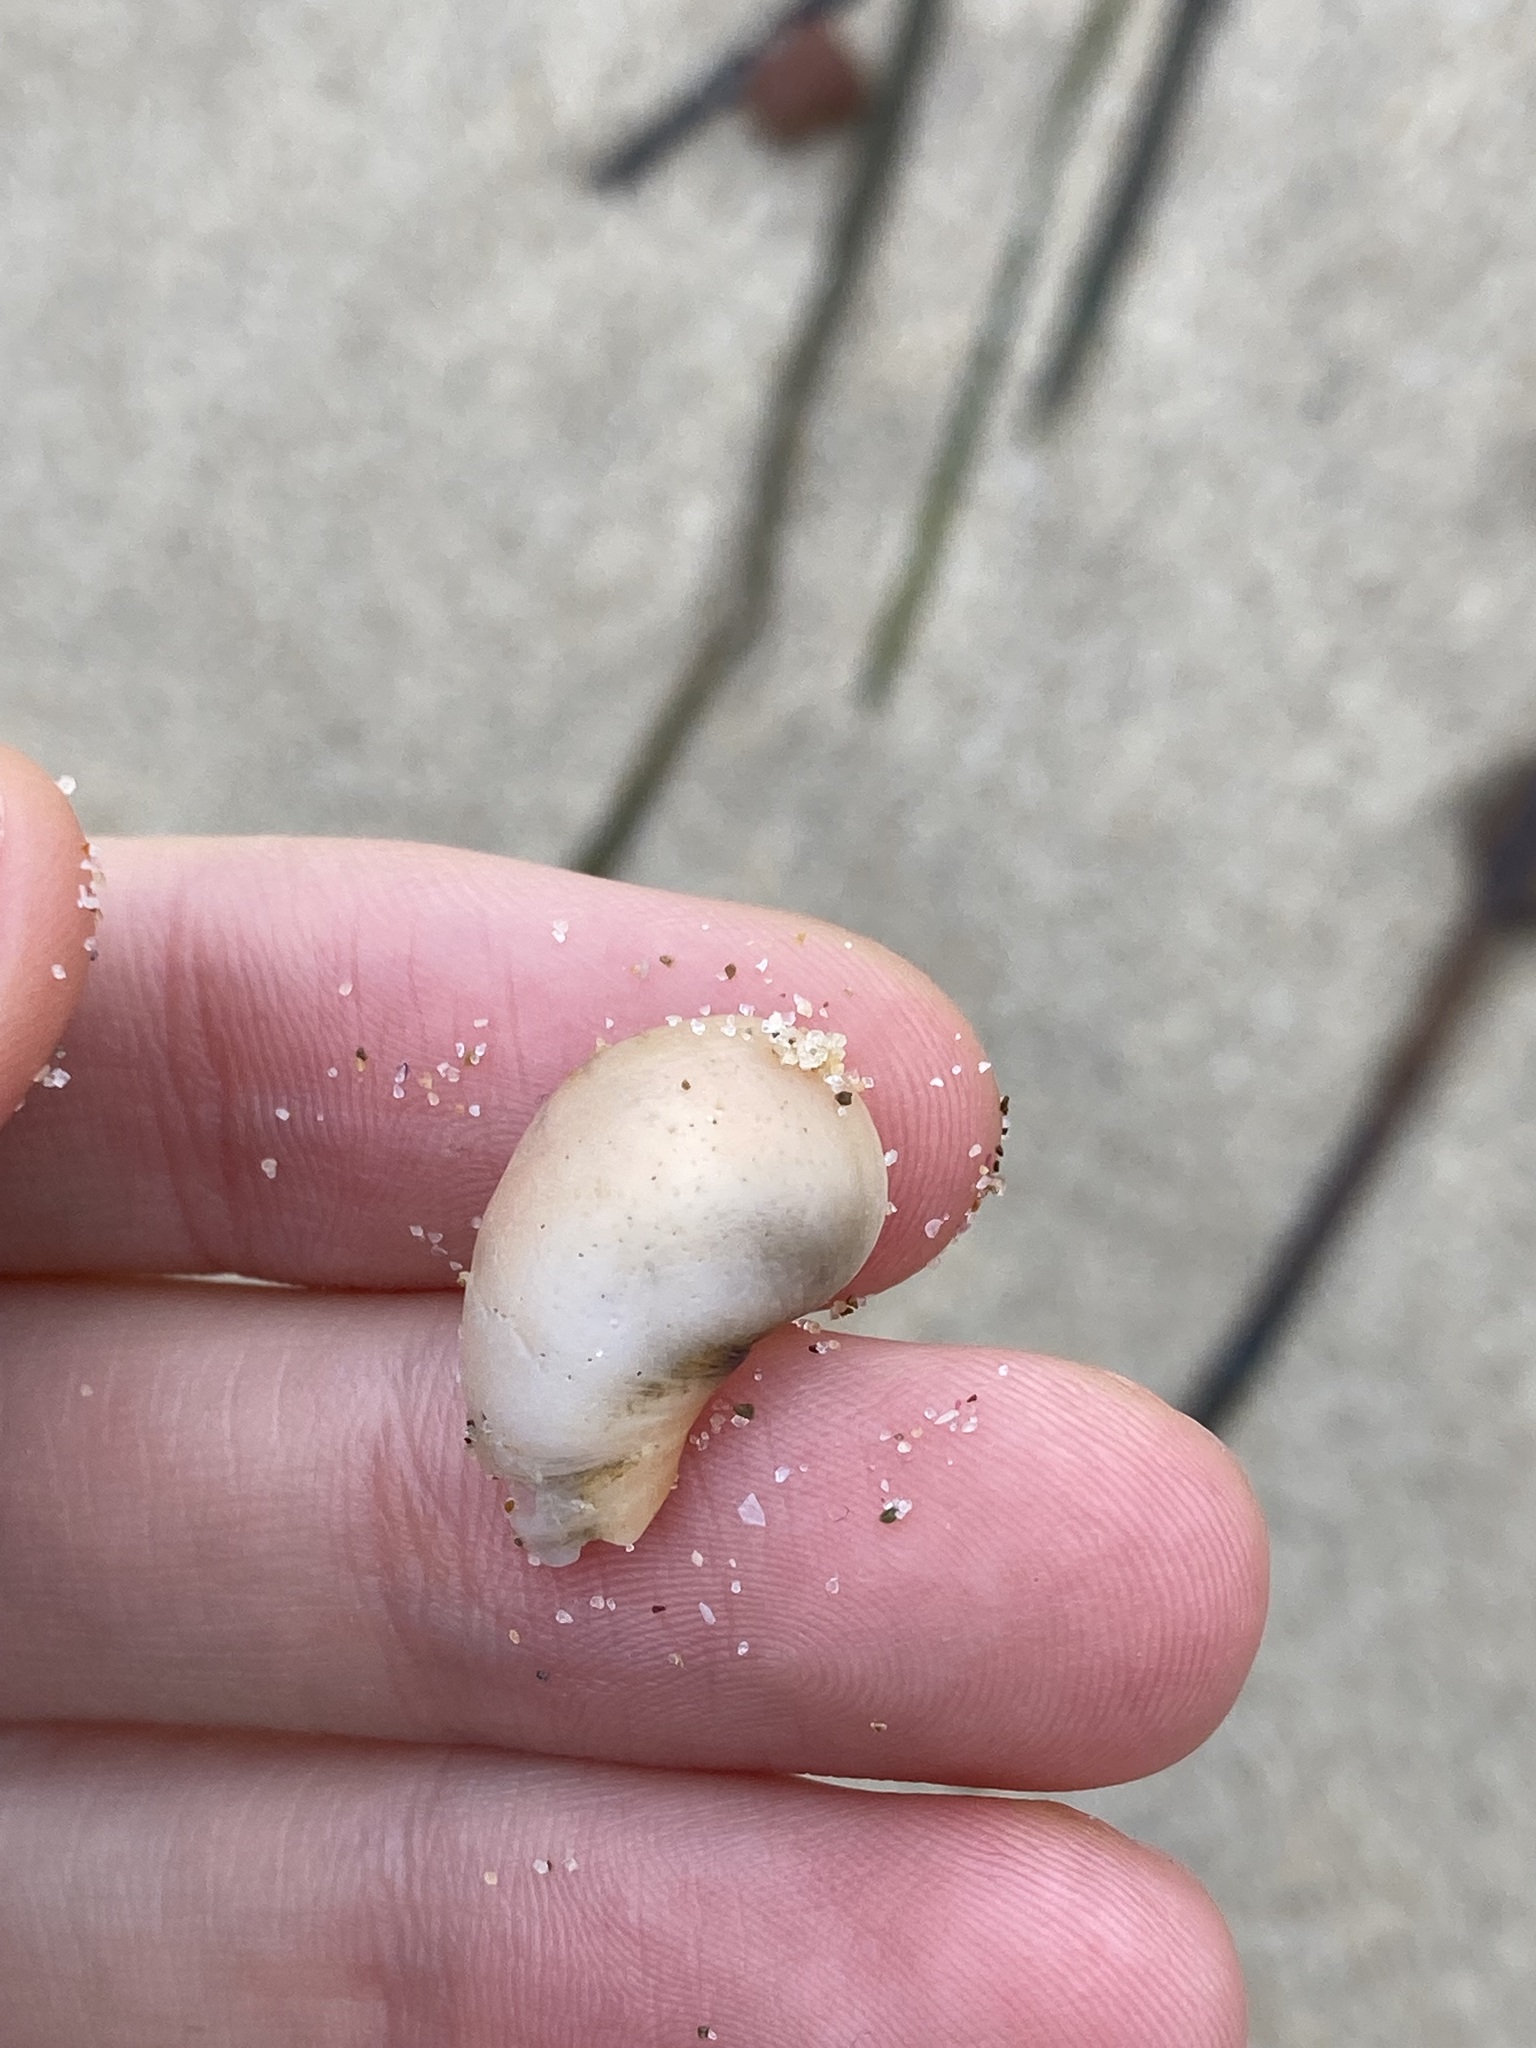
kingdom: Animalia
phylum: Mollusca
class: Gastropoda
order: Littorinimorpha
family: Naticidae
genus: Conuber
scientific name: Conuber conicum
